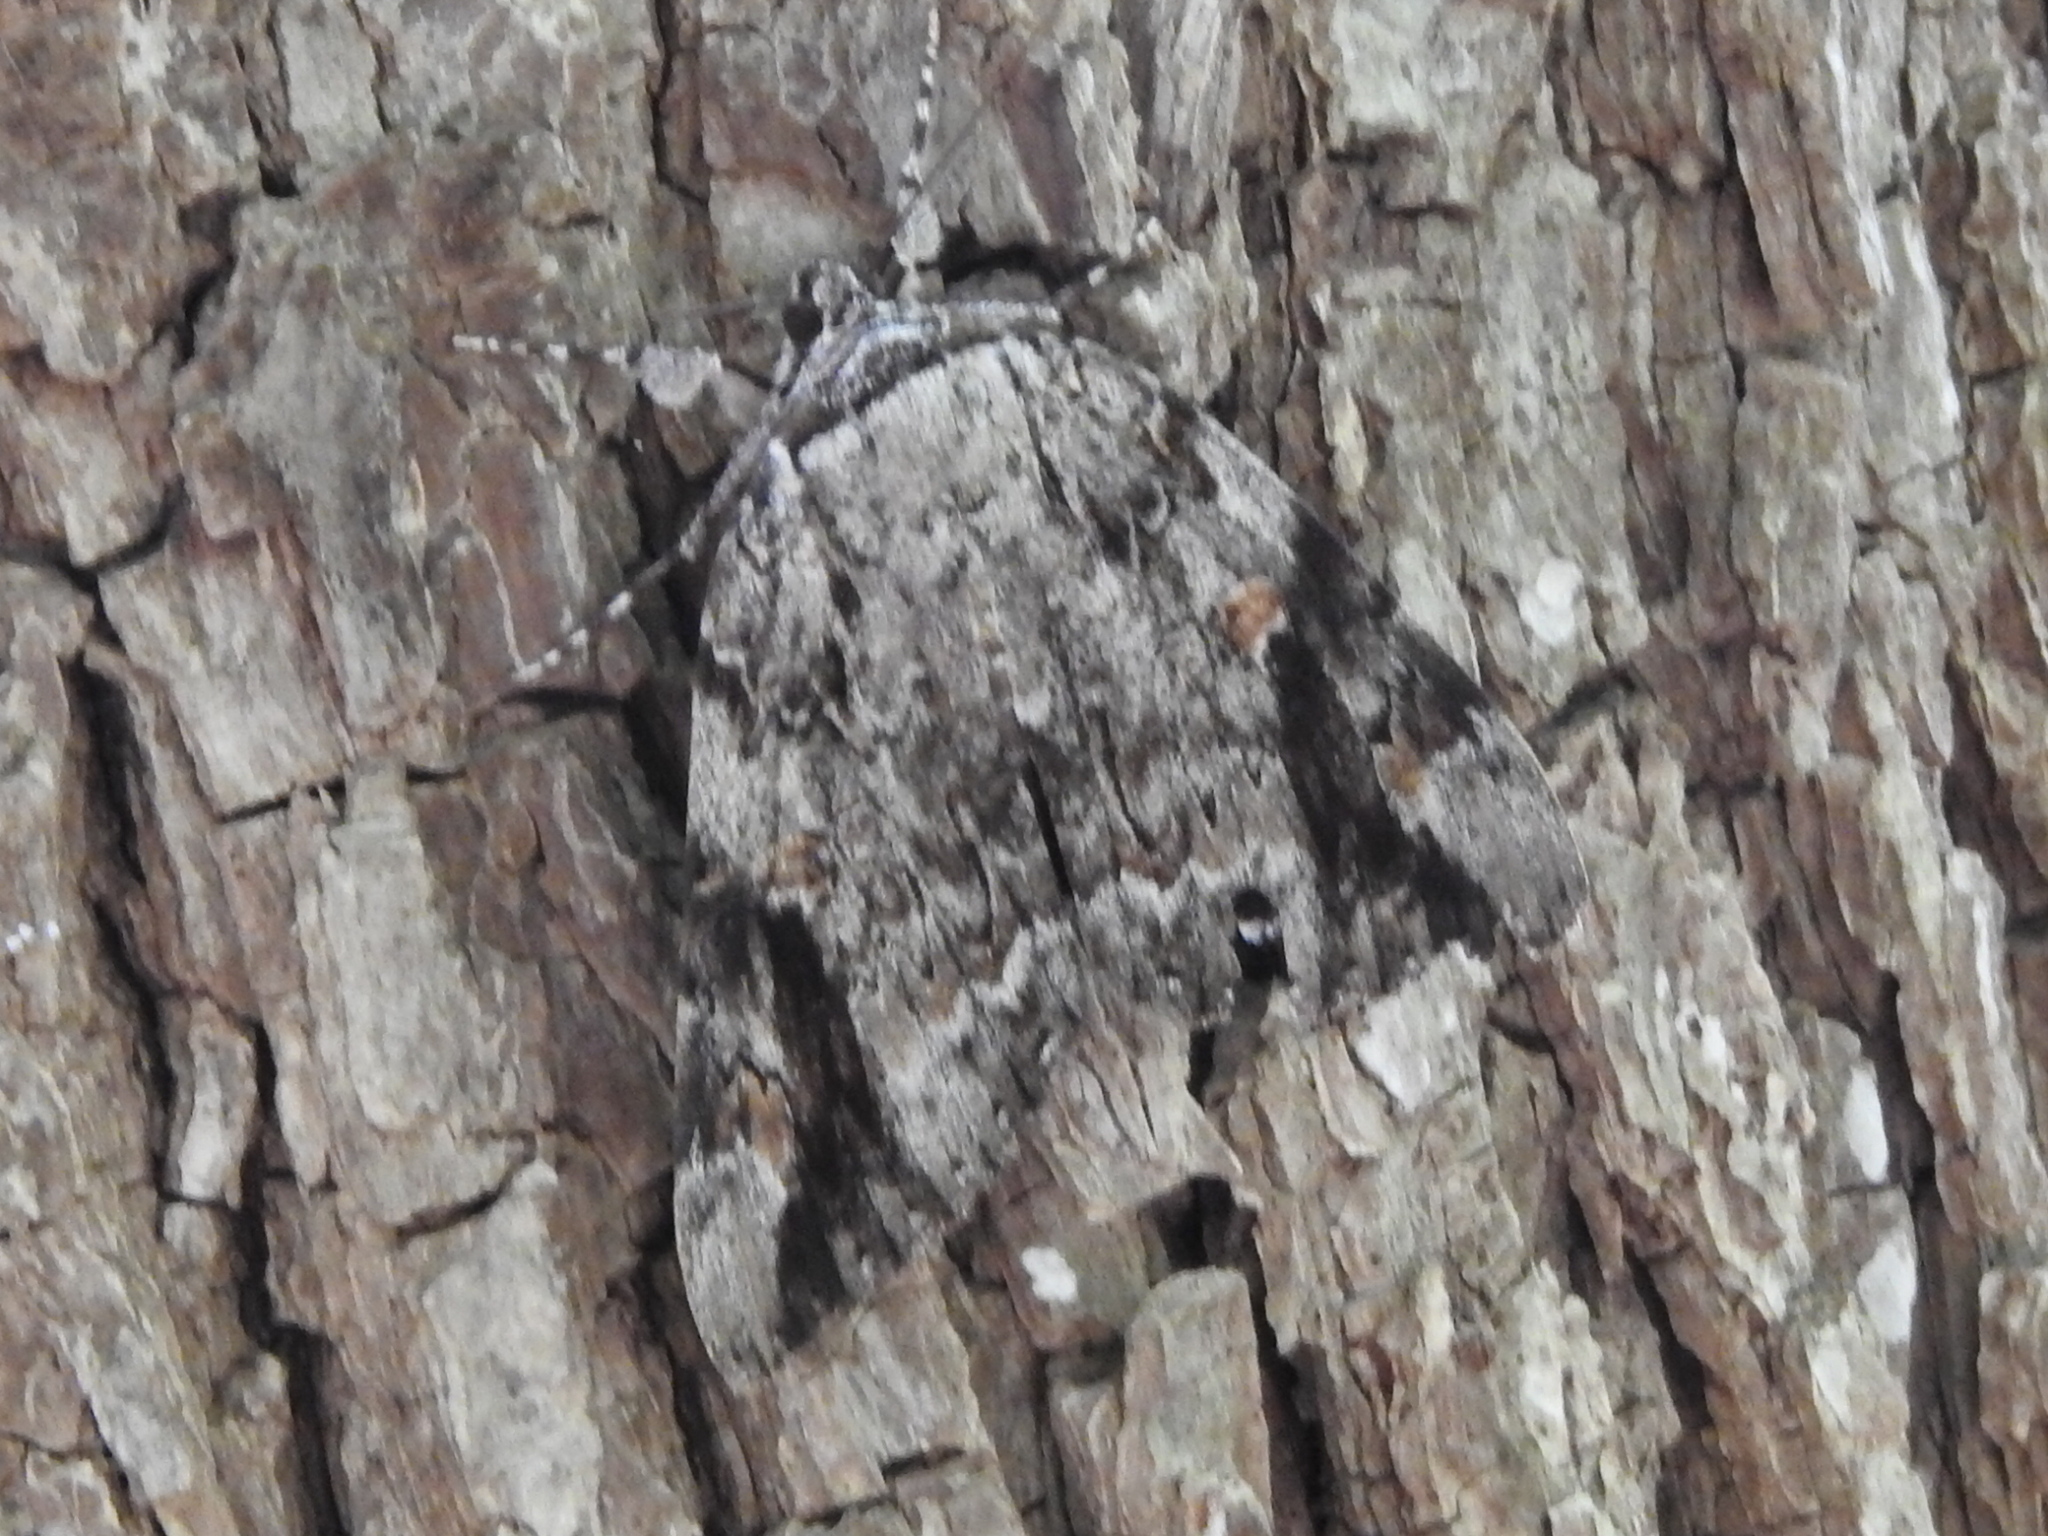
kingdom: Animalia
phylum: Arthropoda
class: Insecta
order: Lepidoptera
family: Erebidae
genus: Catocala
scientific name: Catocala maestosa
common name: Sad underwing
